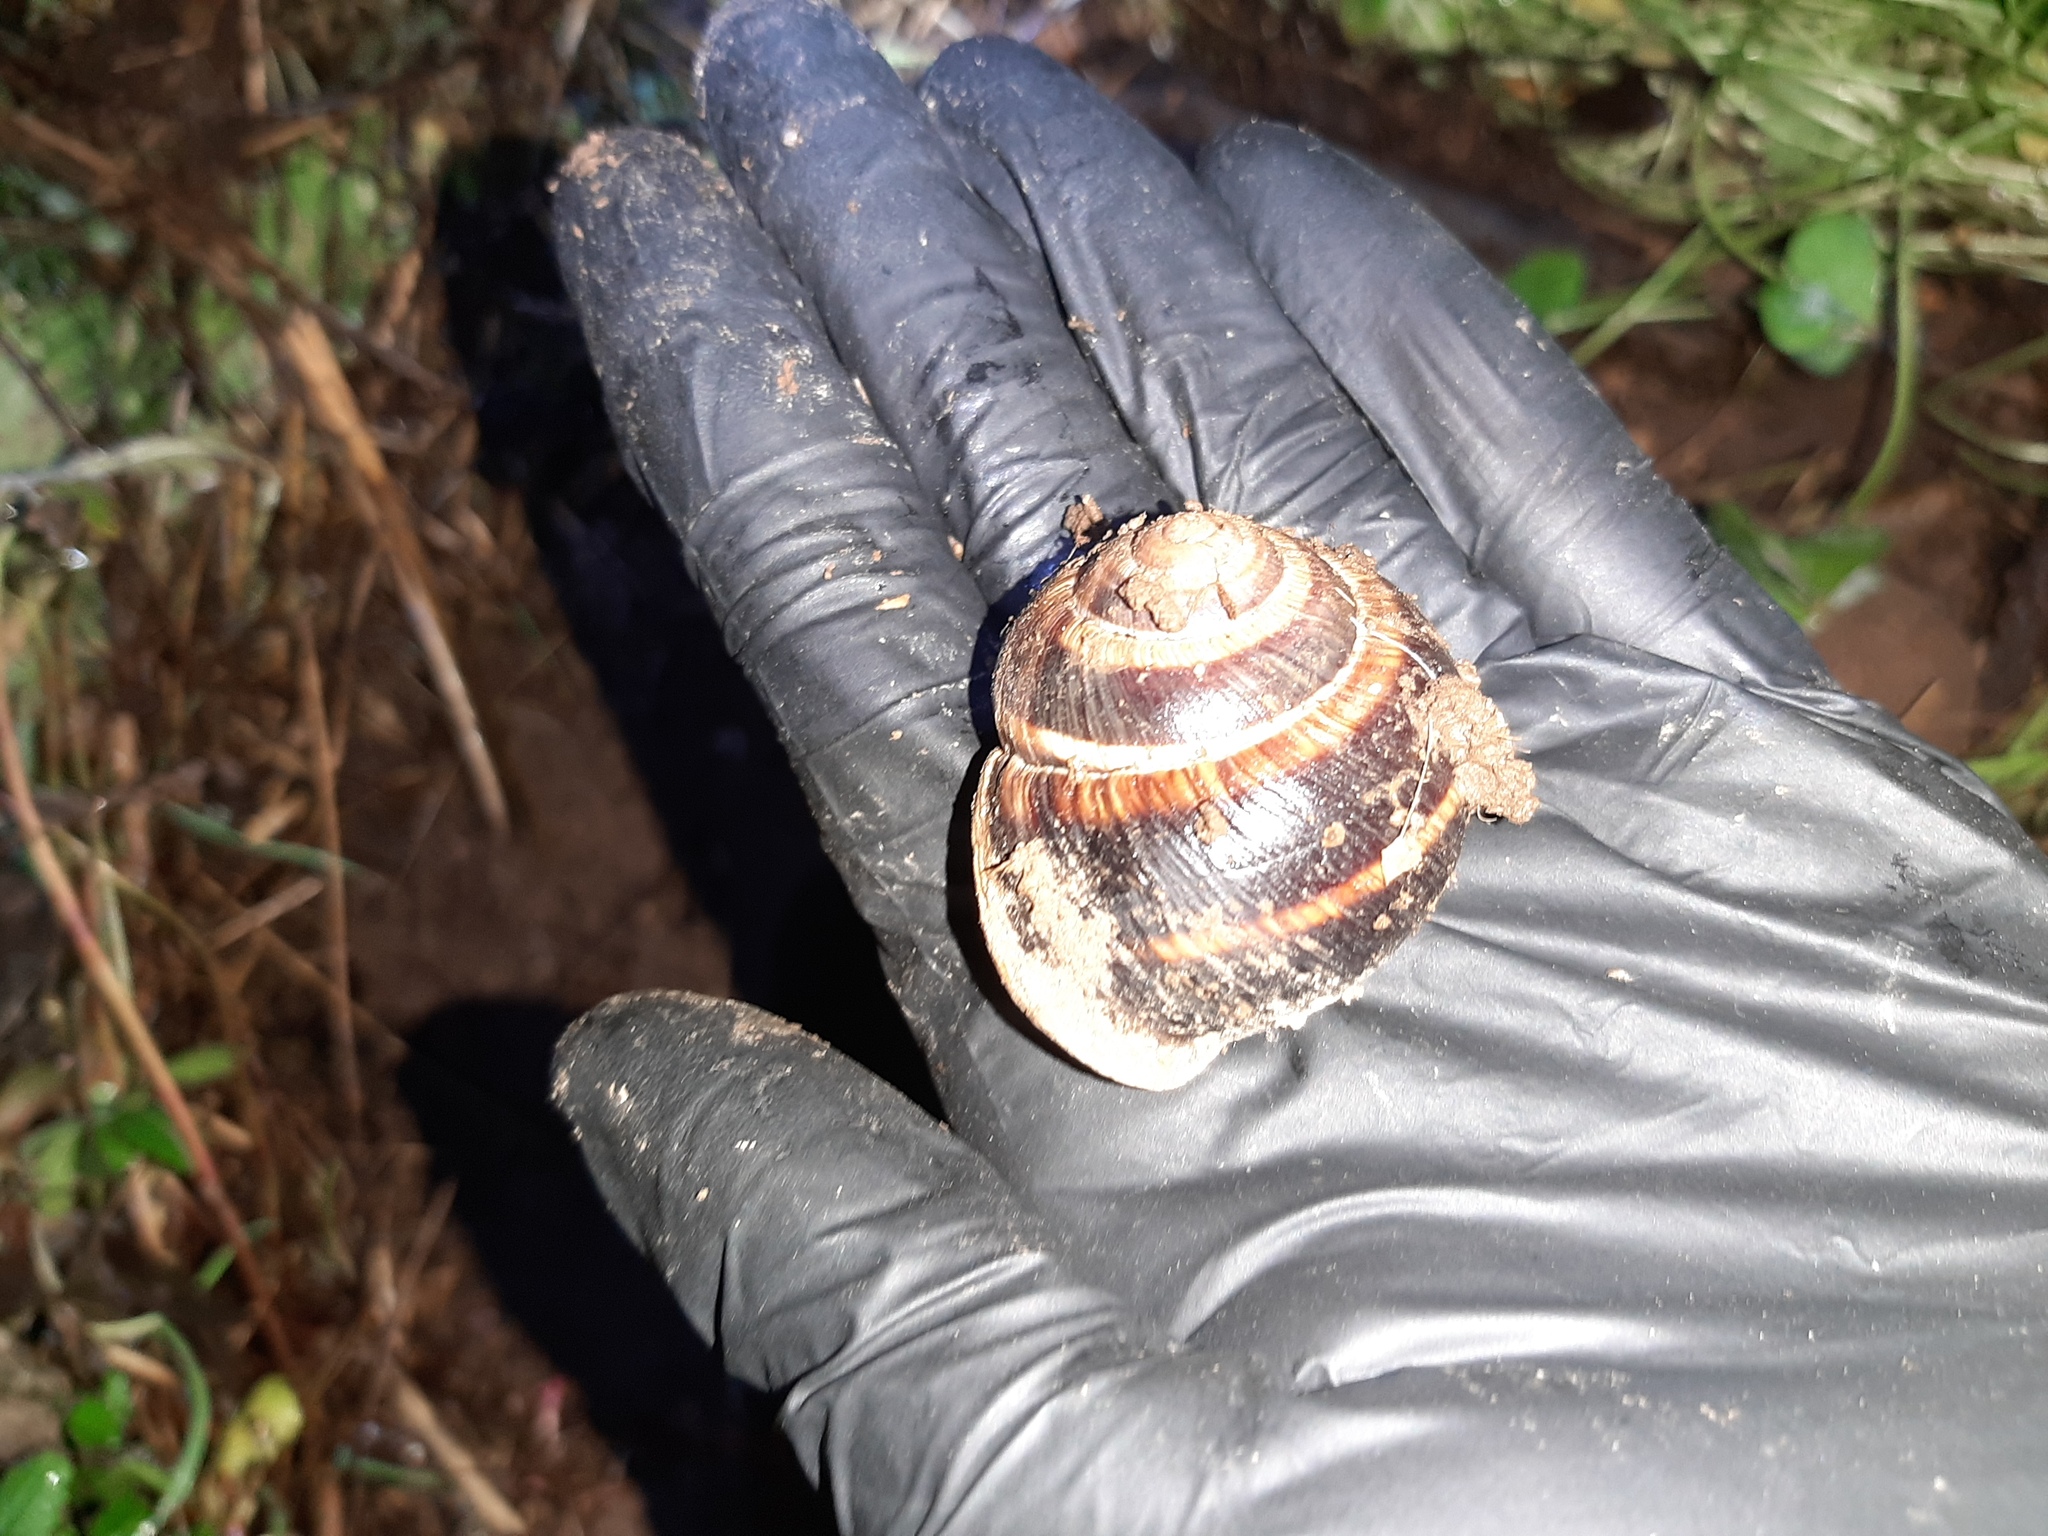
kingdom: Animalia
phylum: Mollusca
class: Gastropoda
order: Stylommatophora
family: Helicidae
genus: Helix
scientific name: Helix lucorum
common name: Turkish snail
